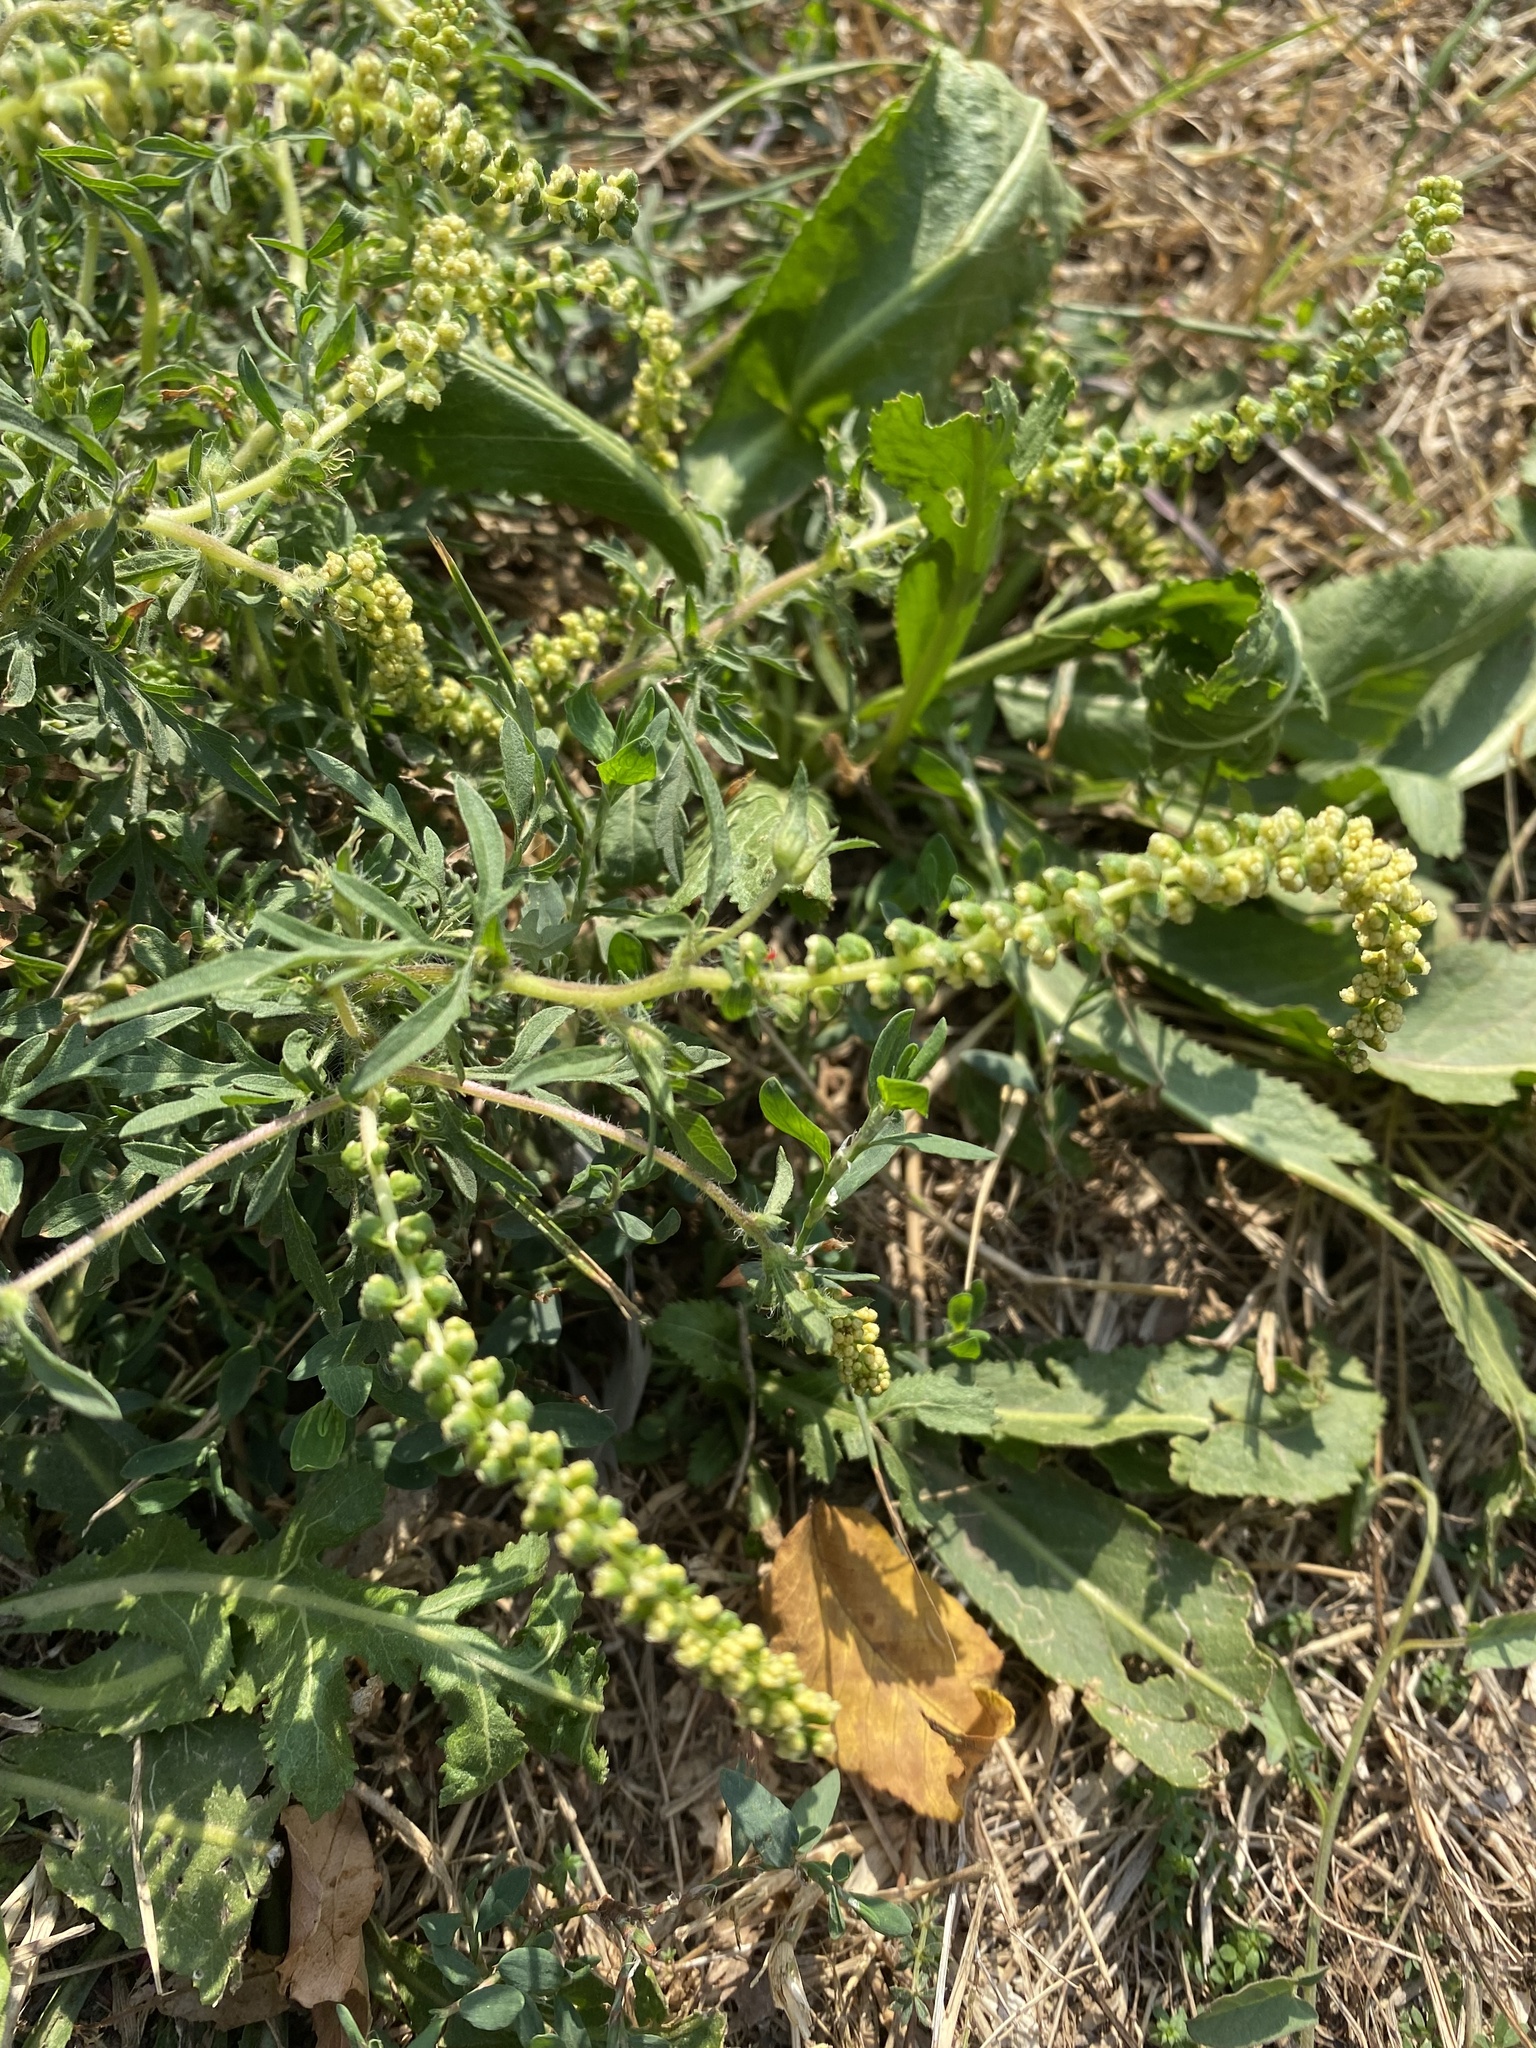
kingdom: Plantae
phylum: Tracheophyta
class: Magnoliopsida
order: Asterales
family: Asteraceae
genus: Ambrosia
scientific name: Ambrosia artemisiifolia
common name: Annual ragweed
